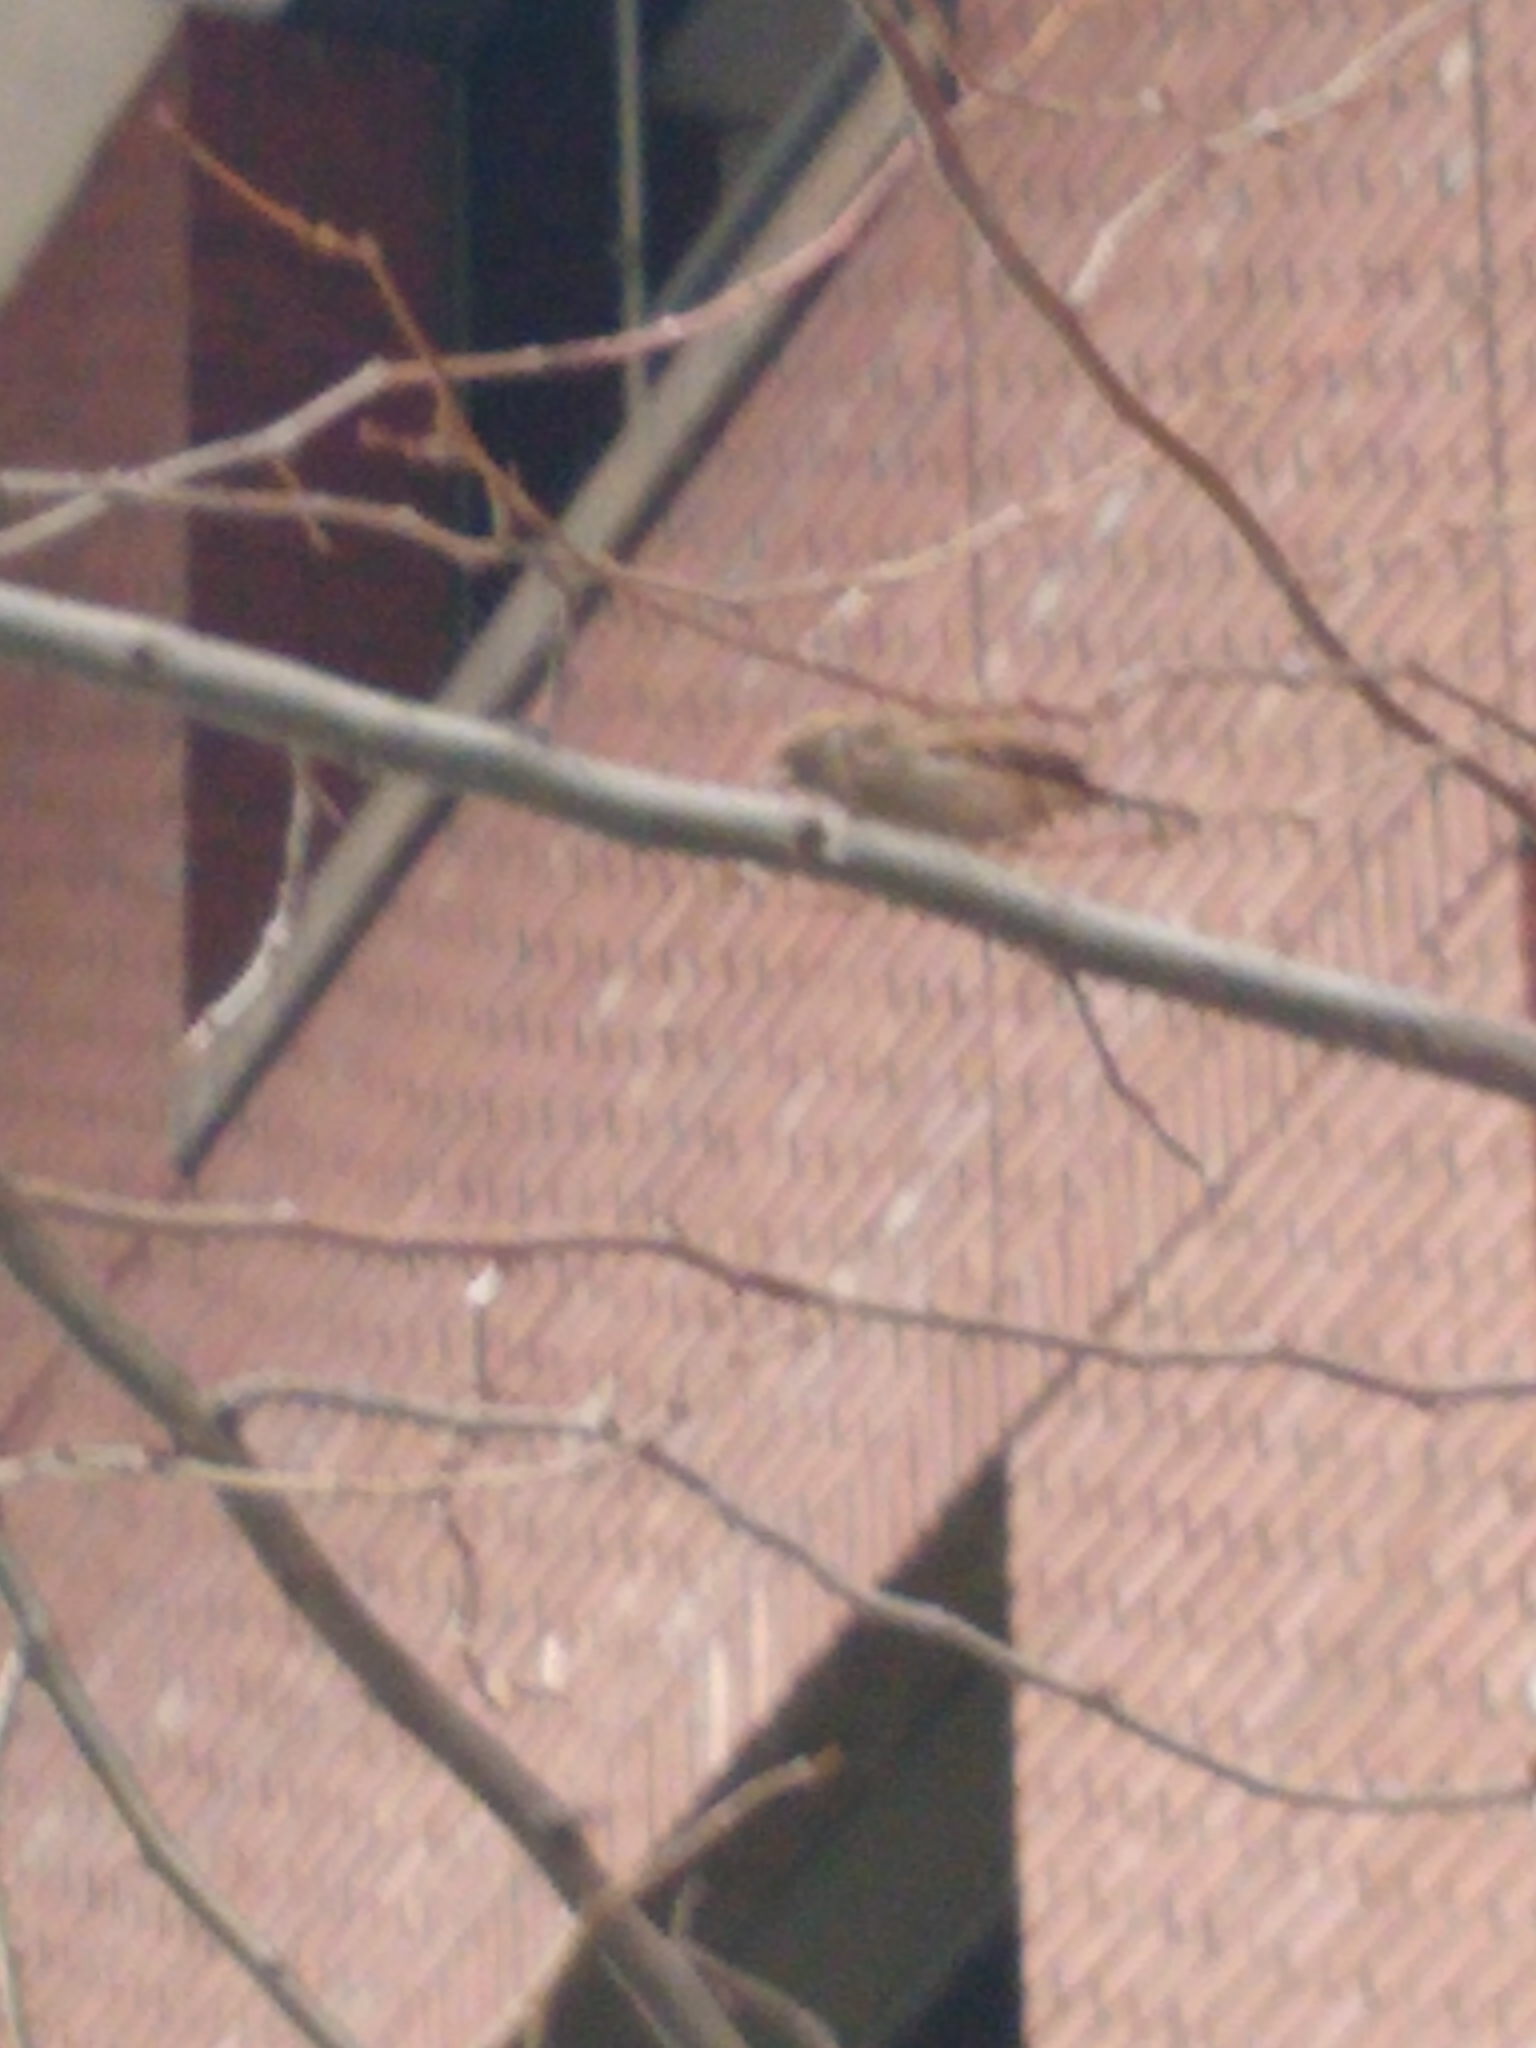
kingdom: Animalia
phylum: Chordata
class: Aves
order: Passeriformes
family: Passeridae
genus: Passer
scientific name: Passer domesticus
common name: House sparrow
